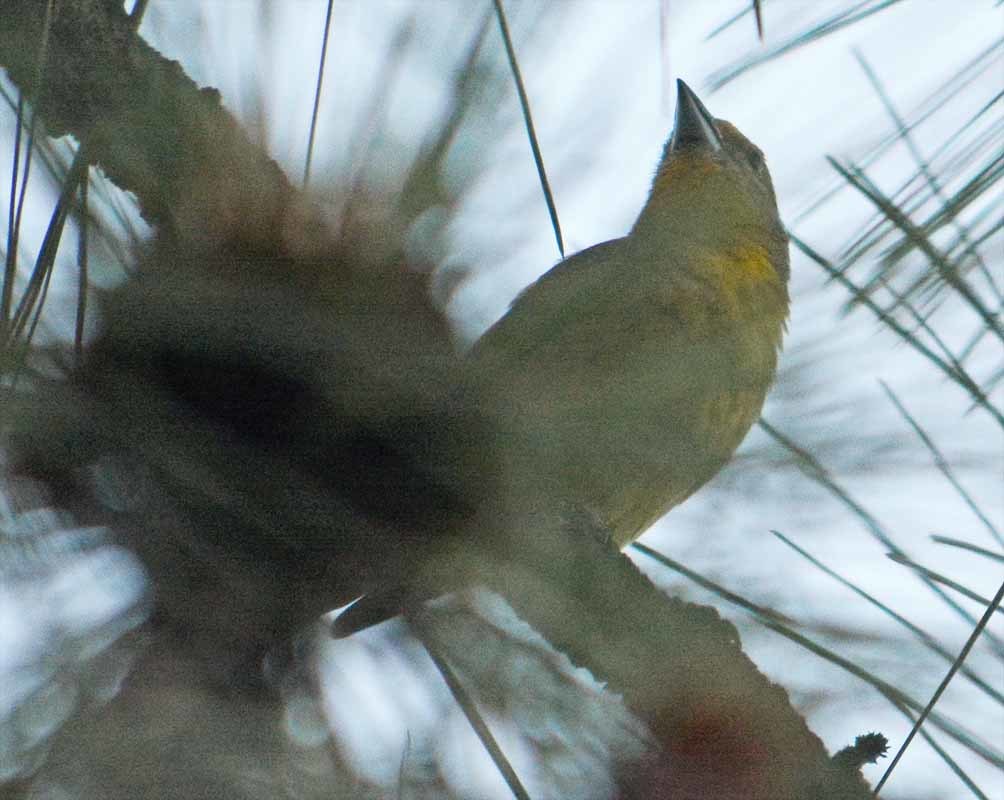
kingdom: Animalia
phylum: Chordata
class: Aves
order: Passeriformes
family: Cardinalidae
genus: Piranga
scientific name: Piranga flava
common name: Red tanager
